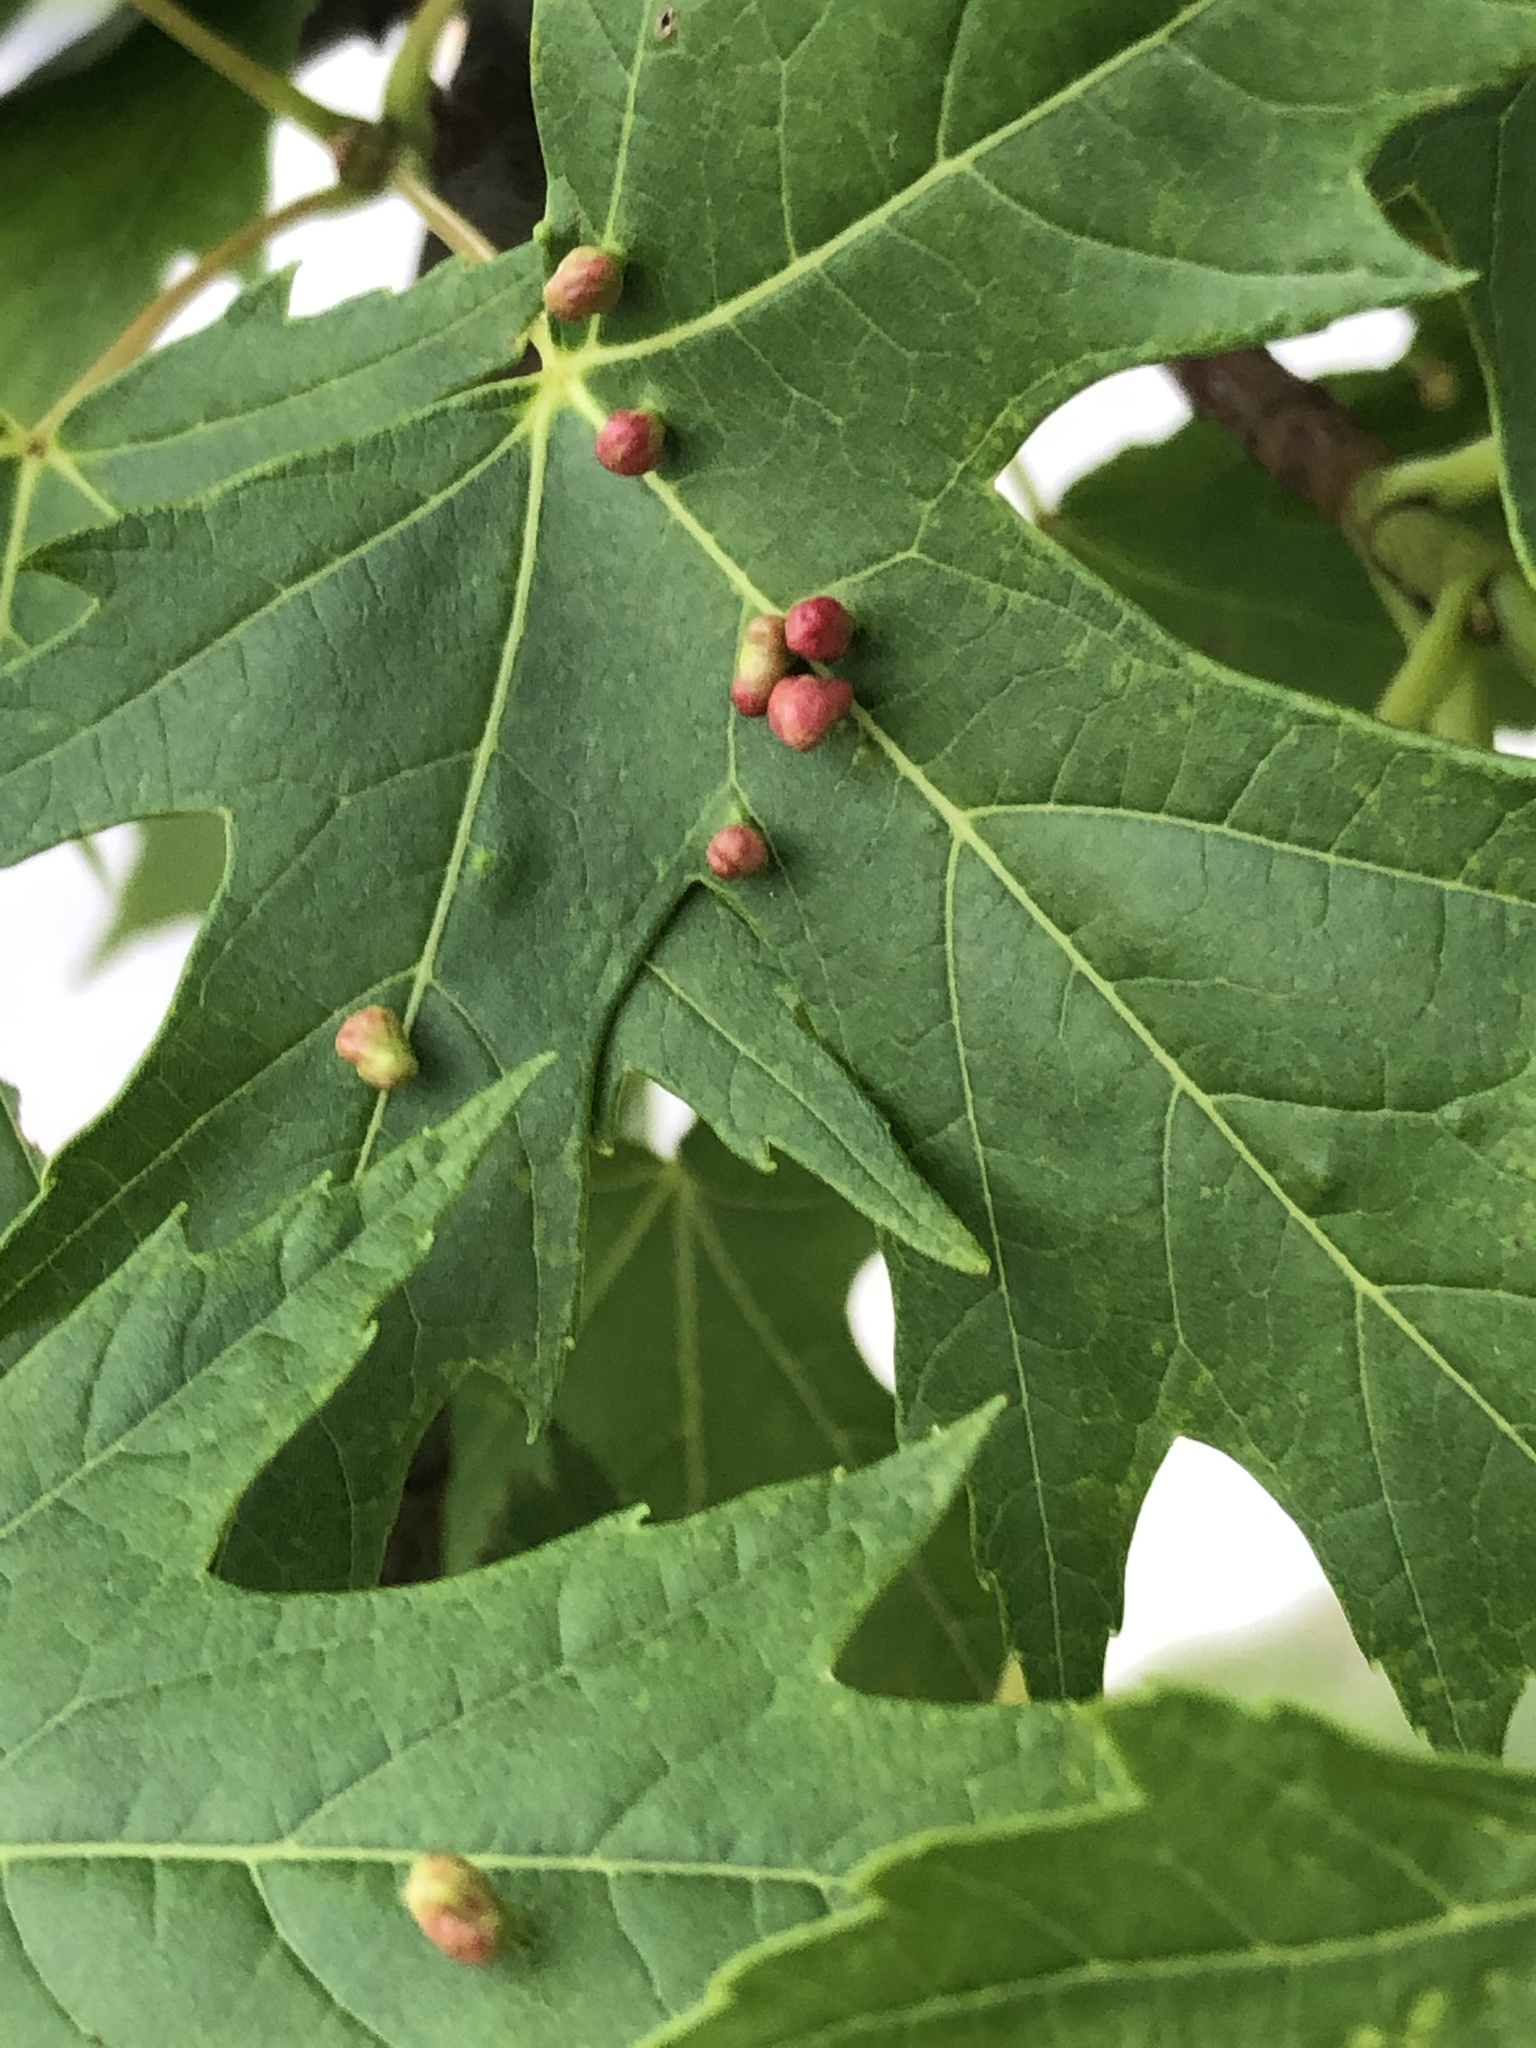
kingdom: Animalia
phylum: Arthropoda
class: Arachnida
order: Trombidiformes
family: Eriophyidae
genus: Vasates
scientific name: Vasates quadripedes
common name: Maple bladder gall mite
